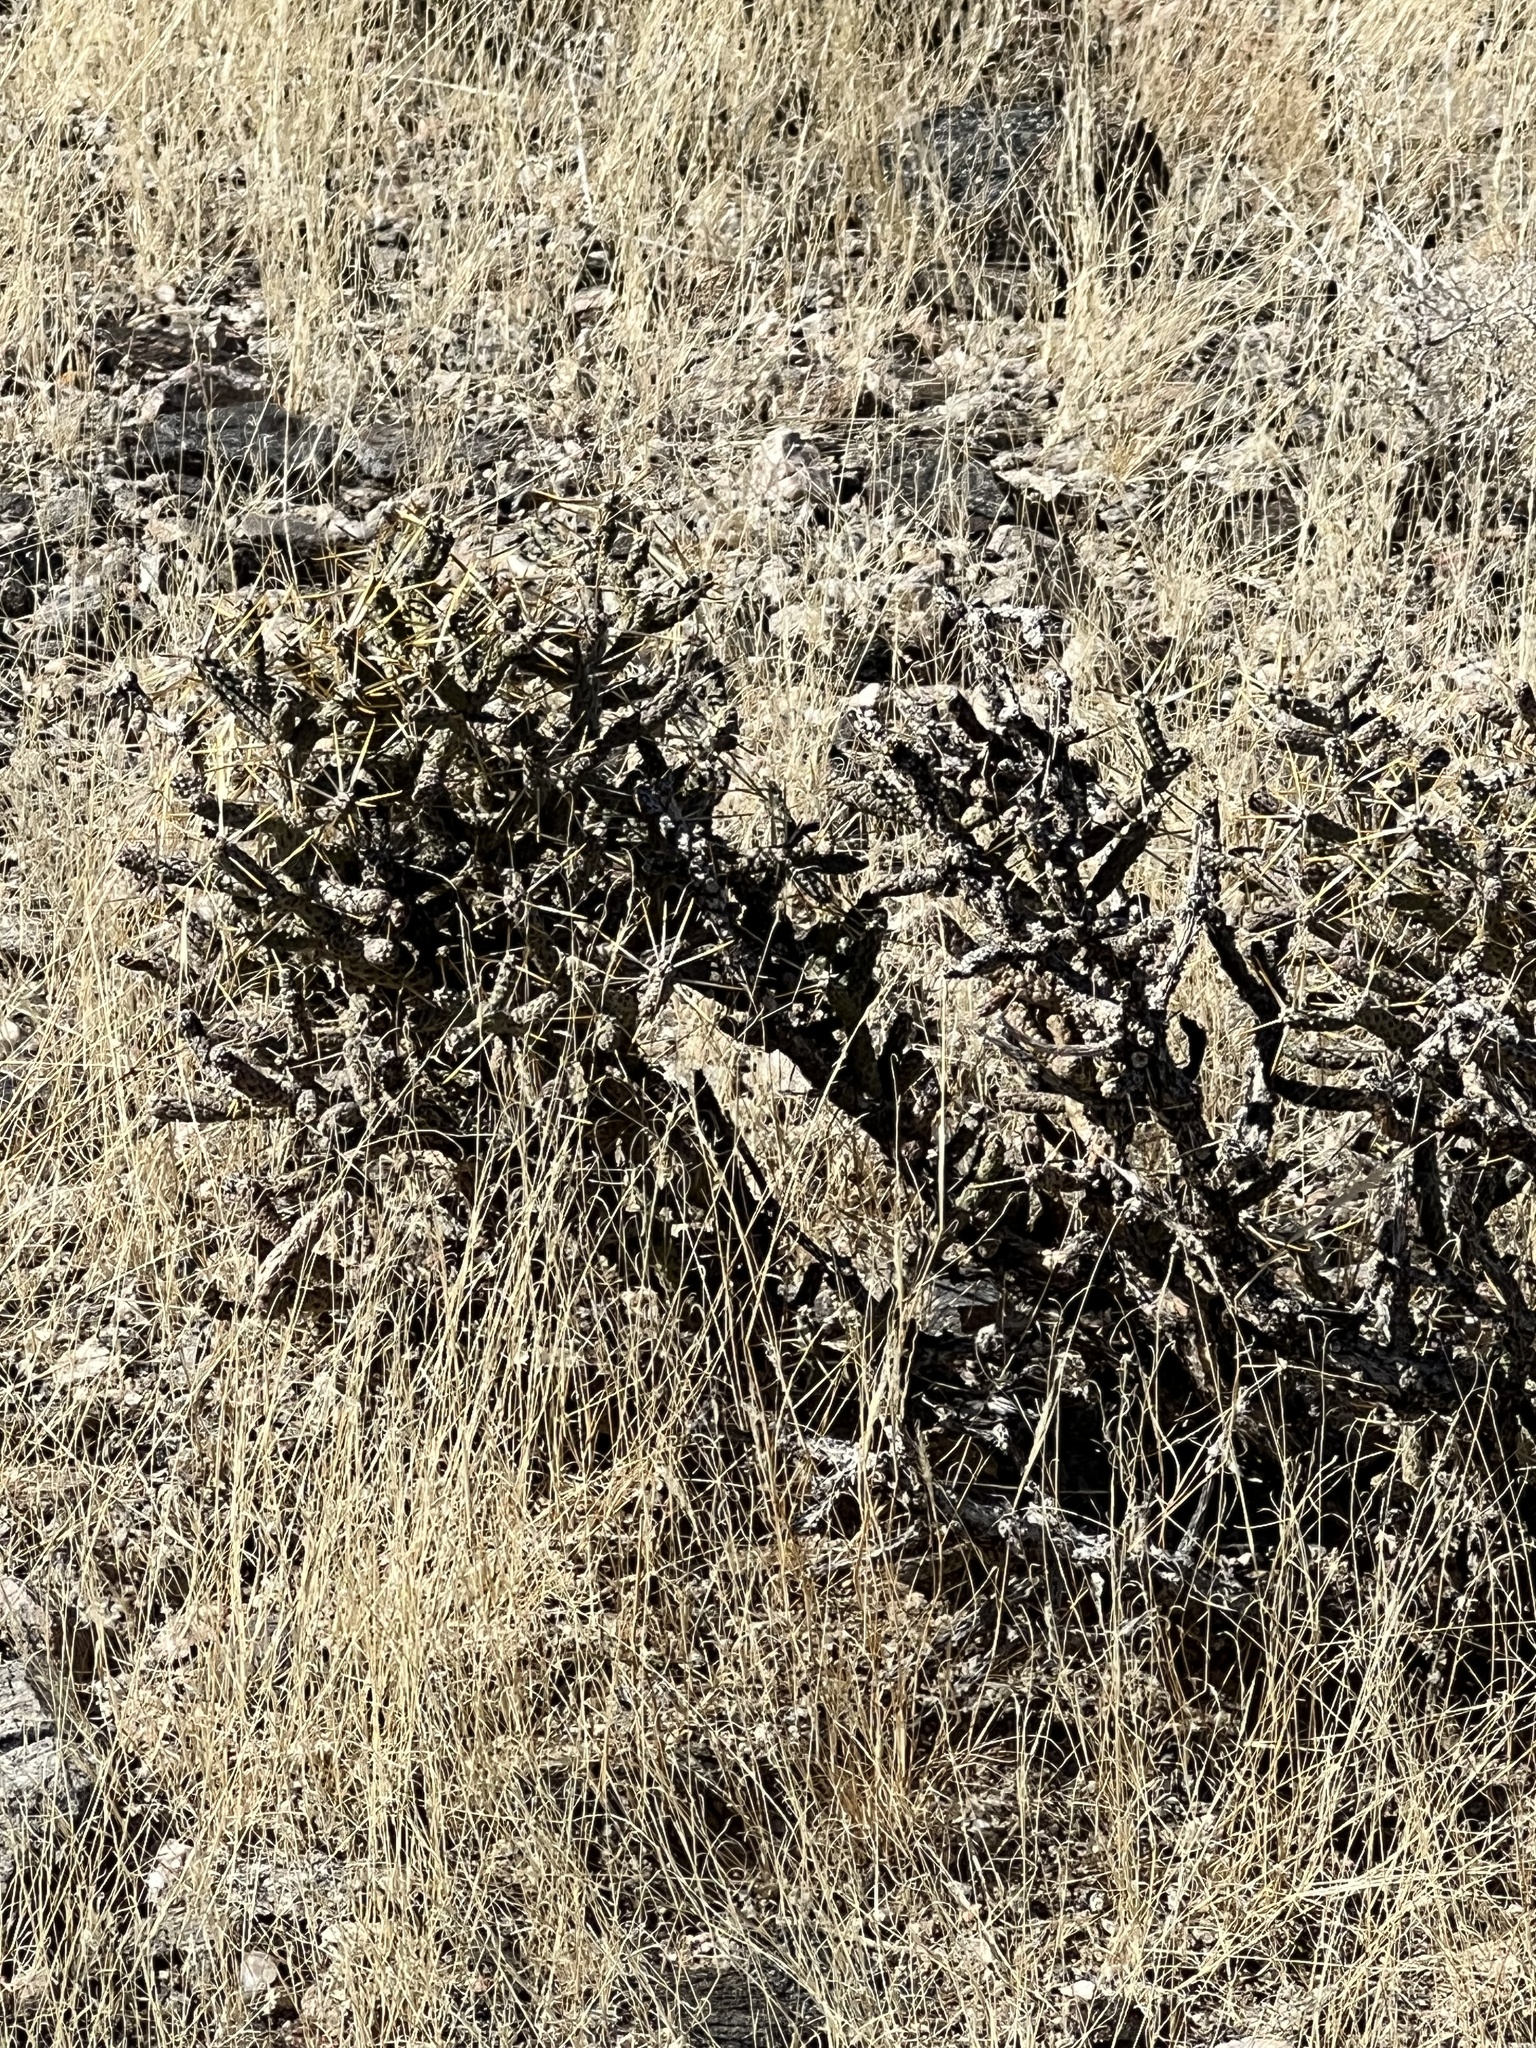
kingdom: Plantae
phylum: Tracheophyta
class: Magnoliopsida
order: Caryophyllales
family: Cactaceae
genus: Cylindropuntia
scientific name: Cylindropuntia ramosissima
